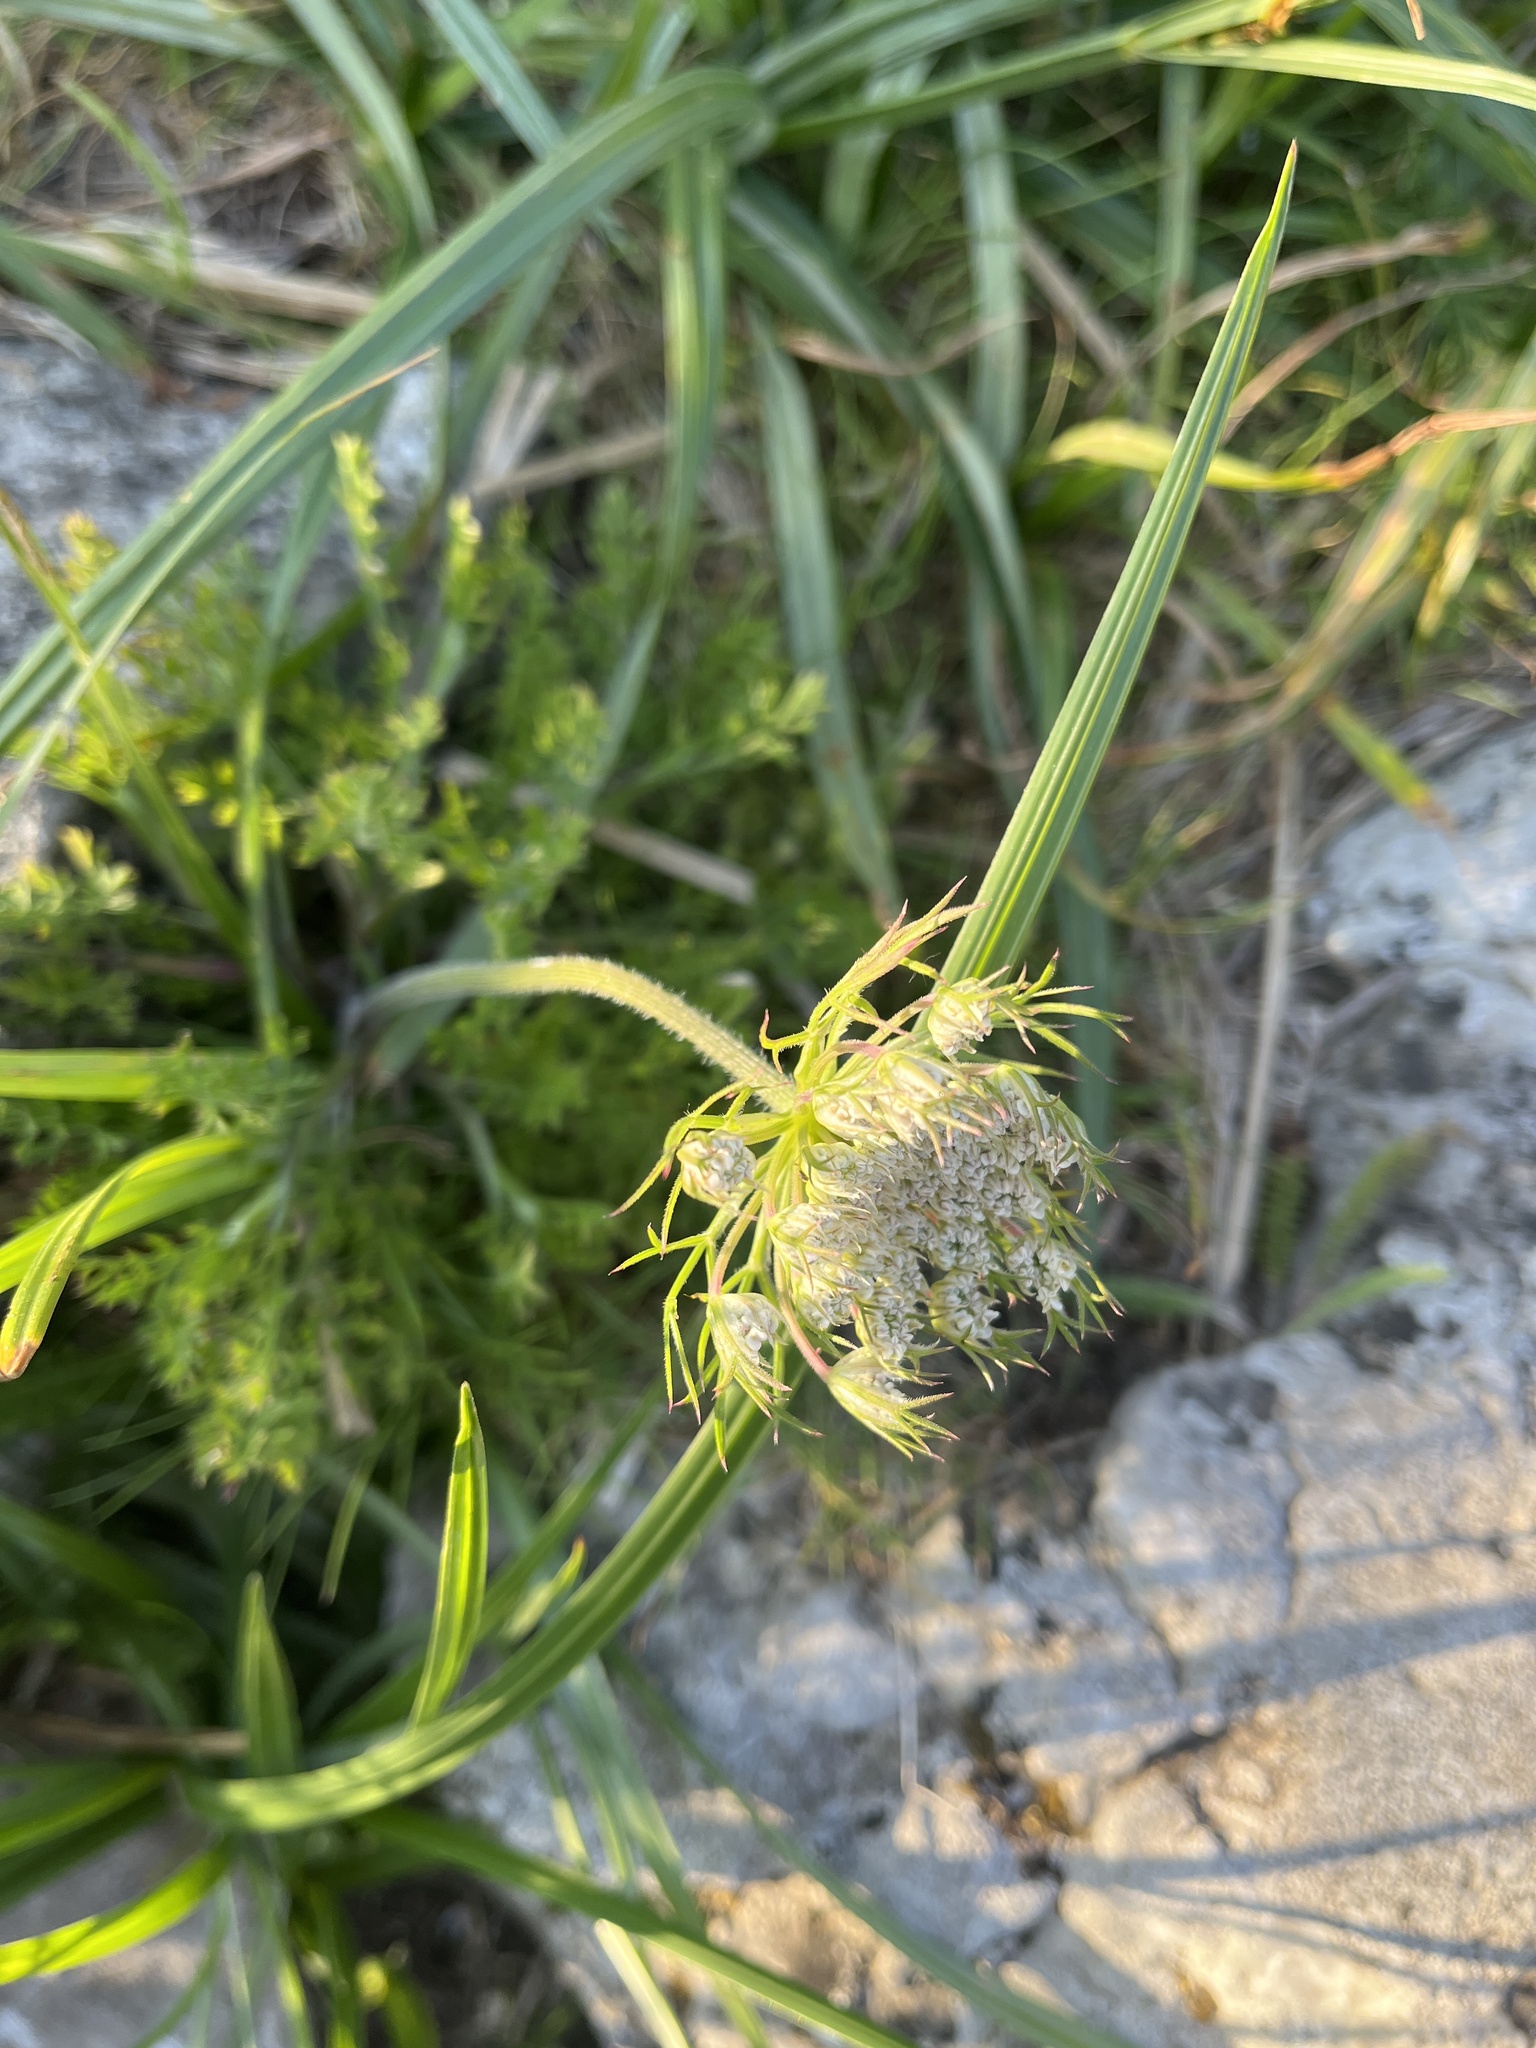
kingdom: Plantae
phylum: Tracheophyta
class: Magnoliopsida
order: Apiales
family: Apiaceae
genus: Daucus
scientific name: Daucus carota
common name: Wild carrot
